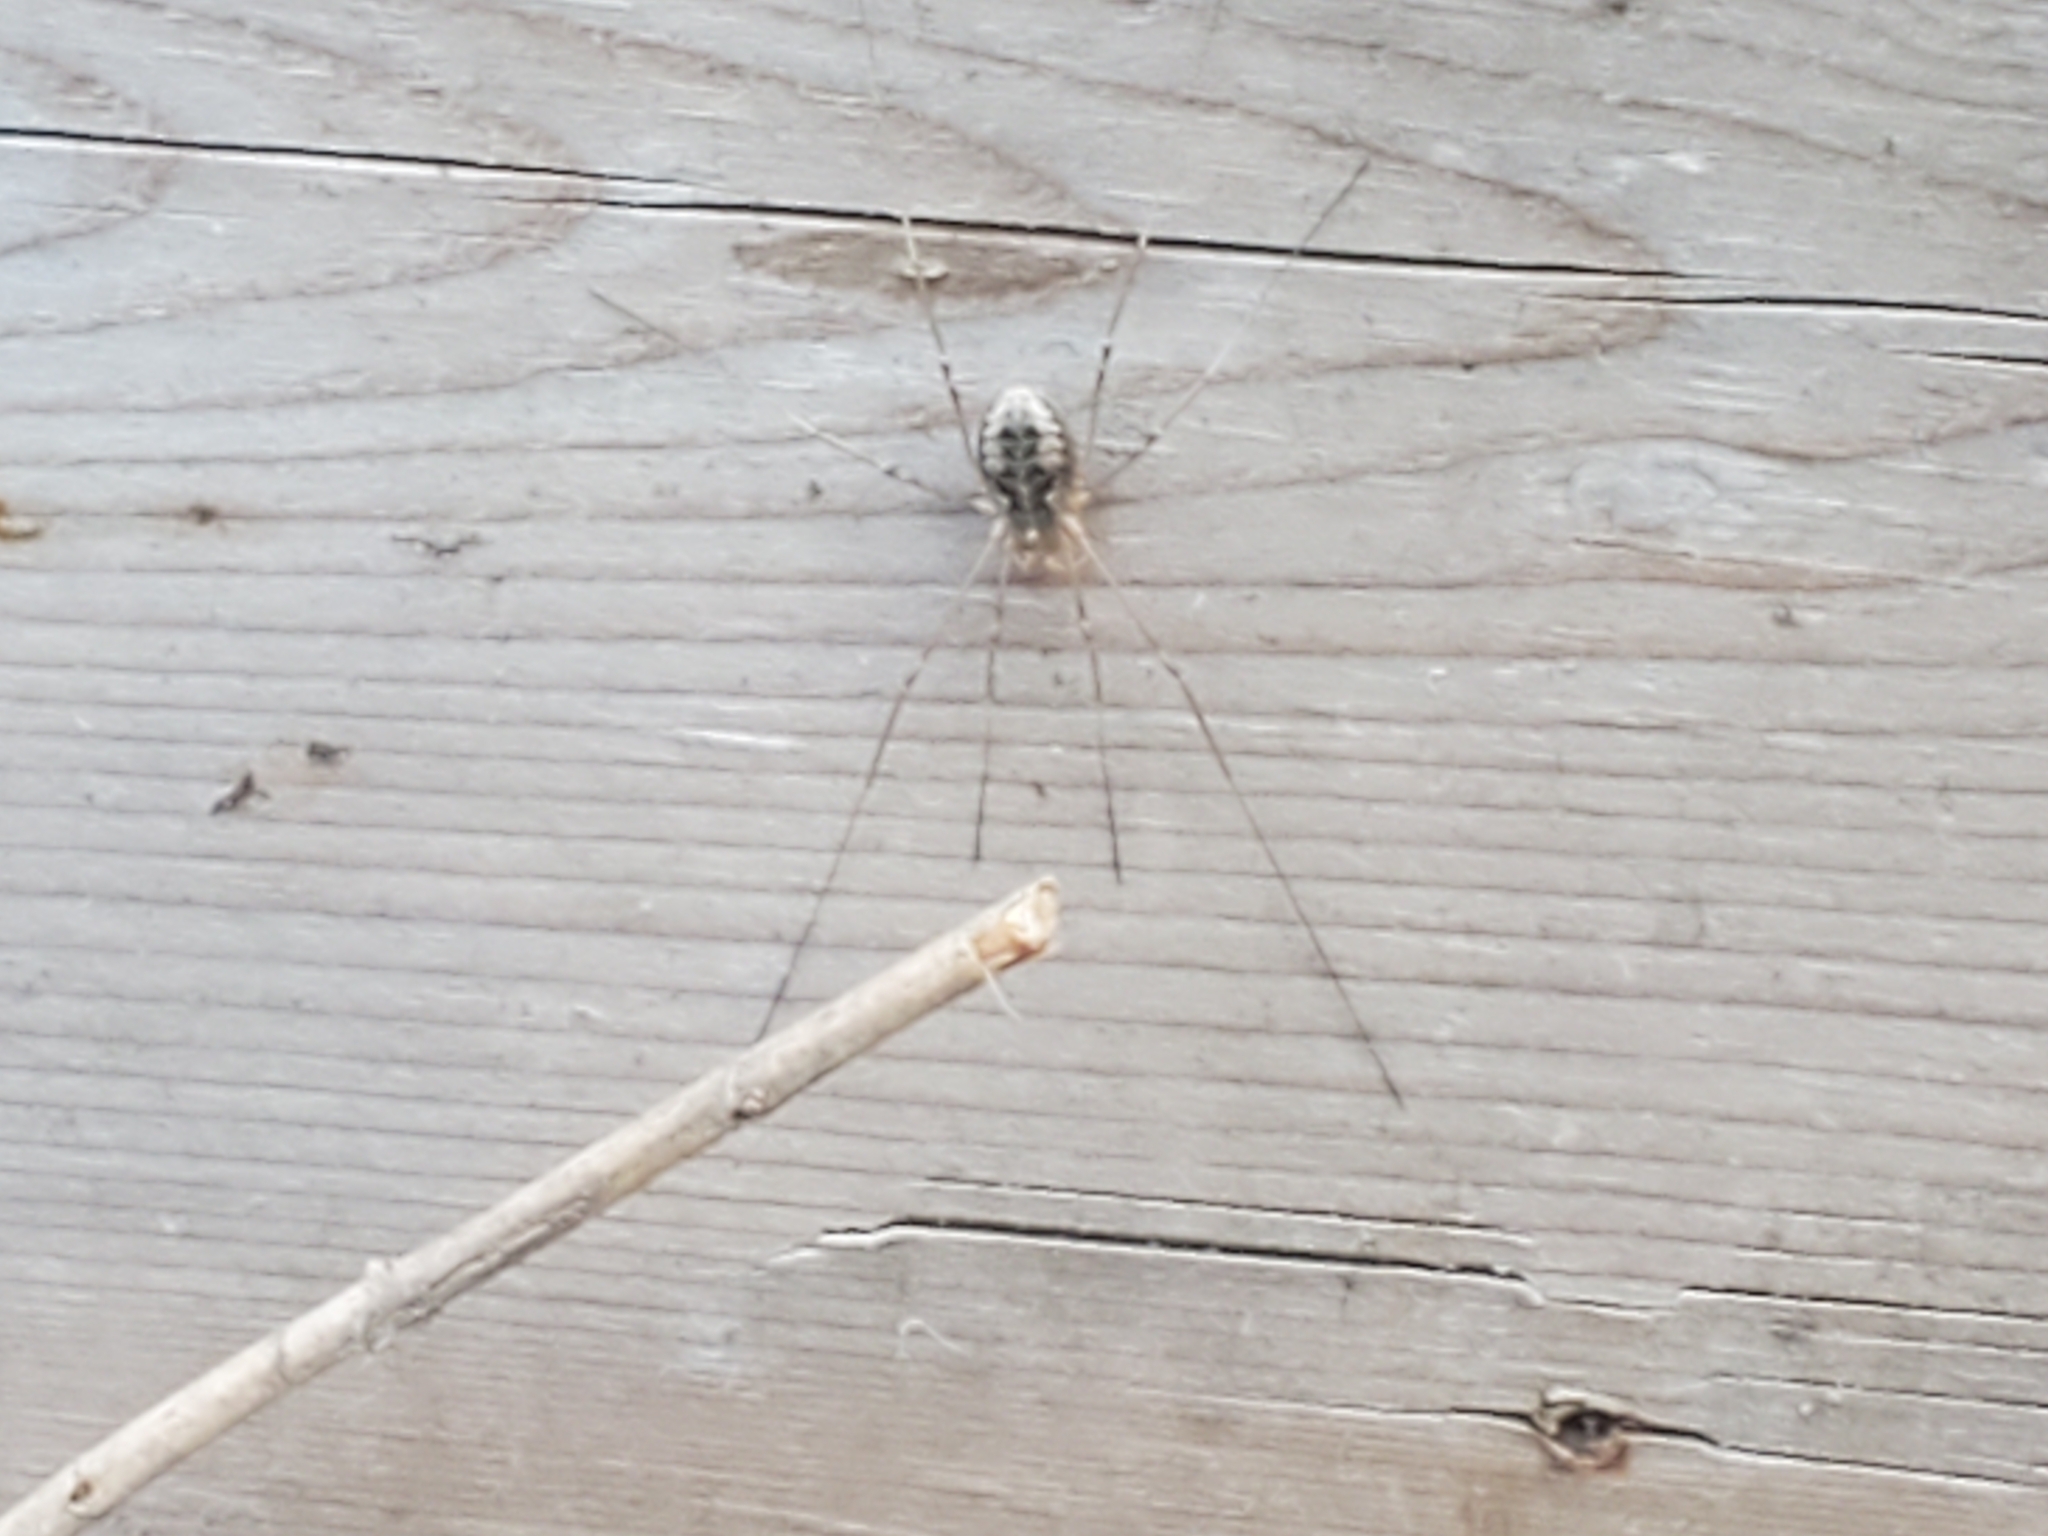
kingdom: Animalia
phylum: Arthropoda
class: Arachnida
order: Opiliones
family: Phalangiidae
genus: Phalangium
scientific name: Phalangium opilio
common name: Daddy longleg
